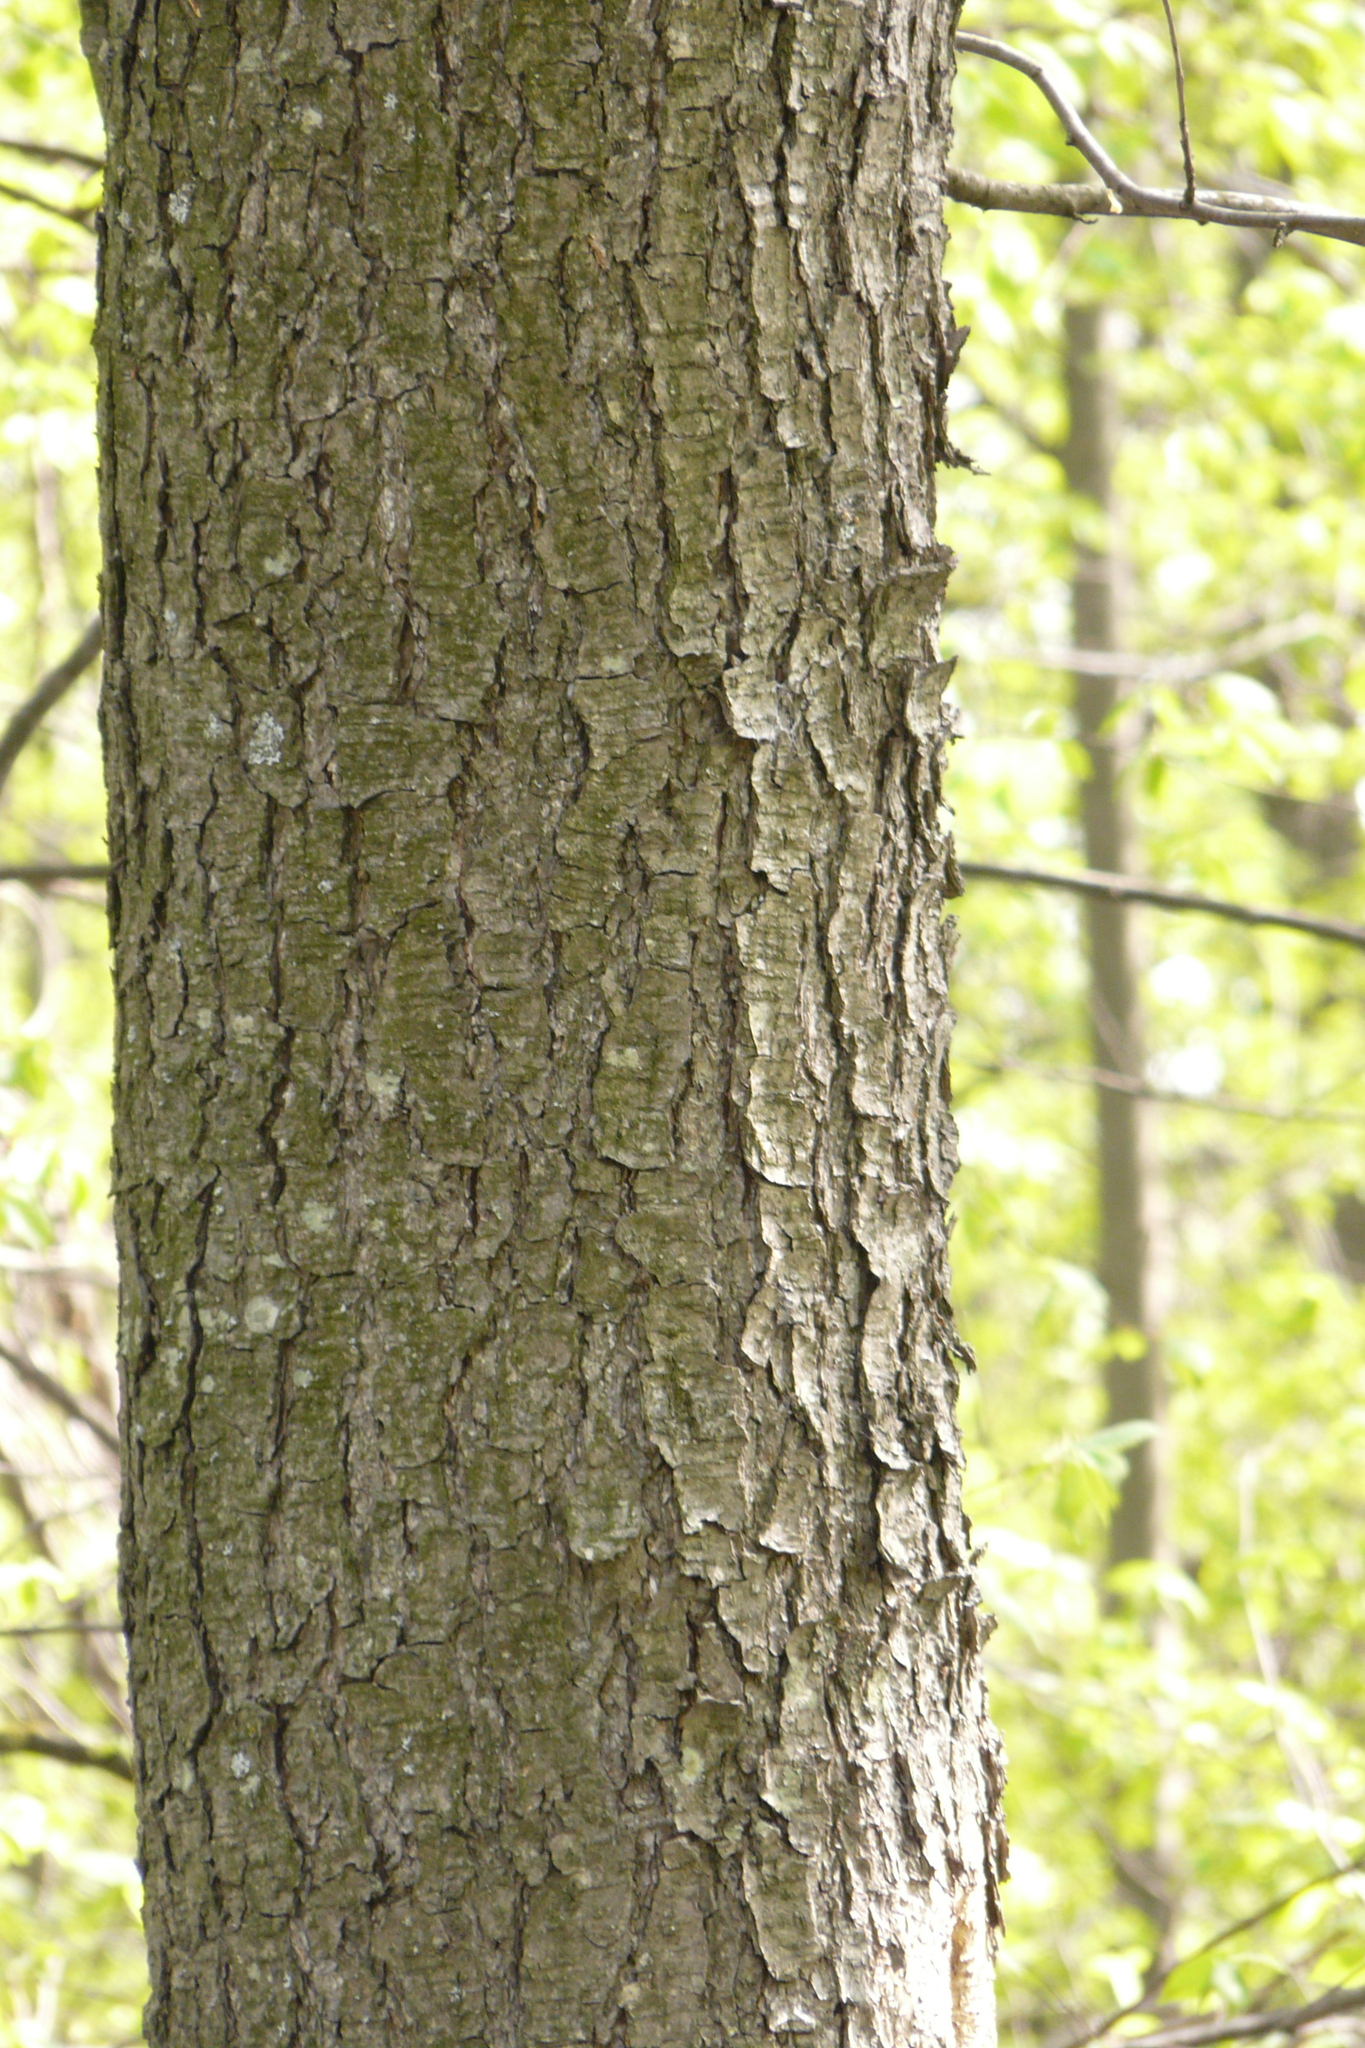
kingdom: Plantae
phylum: Tracheophyta
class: Magnoliopsida
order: Fagales
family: Betulaceae
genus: Alnus
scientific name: Alnus glutinosa
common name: Black alder
